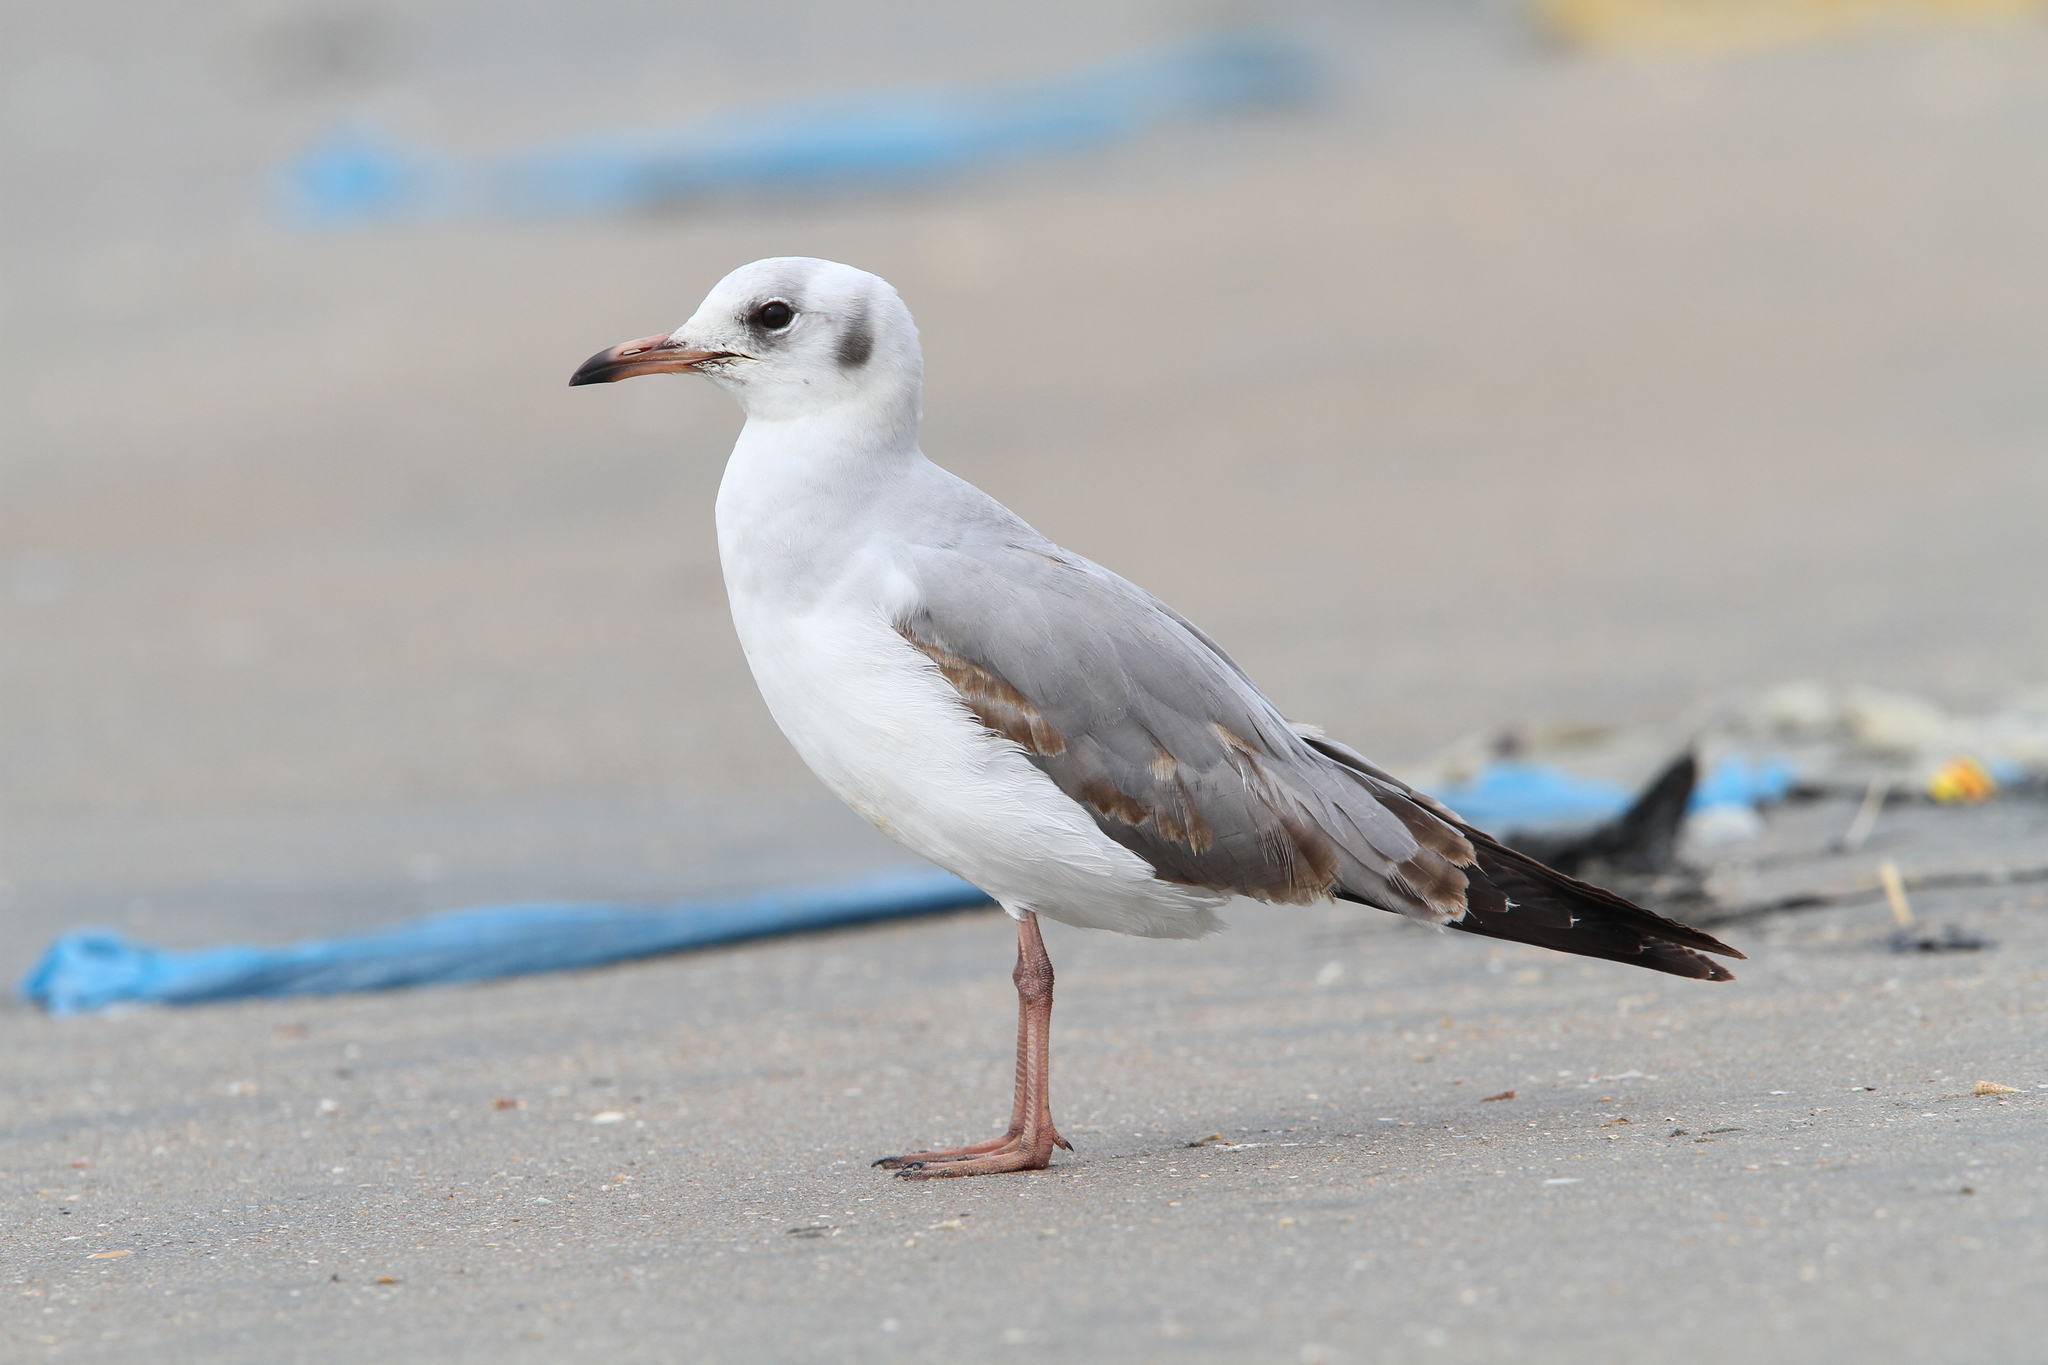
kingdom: Animalia
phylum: Chordata
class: Aves
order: Charadriiformes
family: Laridae
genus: Chroicocephalus
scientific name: Chroicocephalus cirrocephalus
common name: Grey-headed gull
